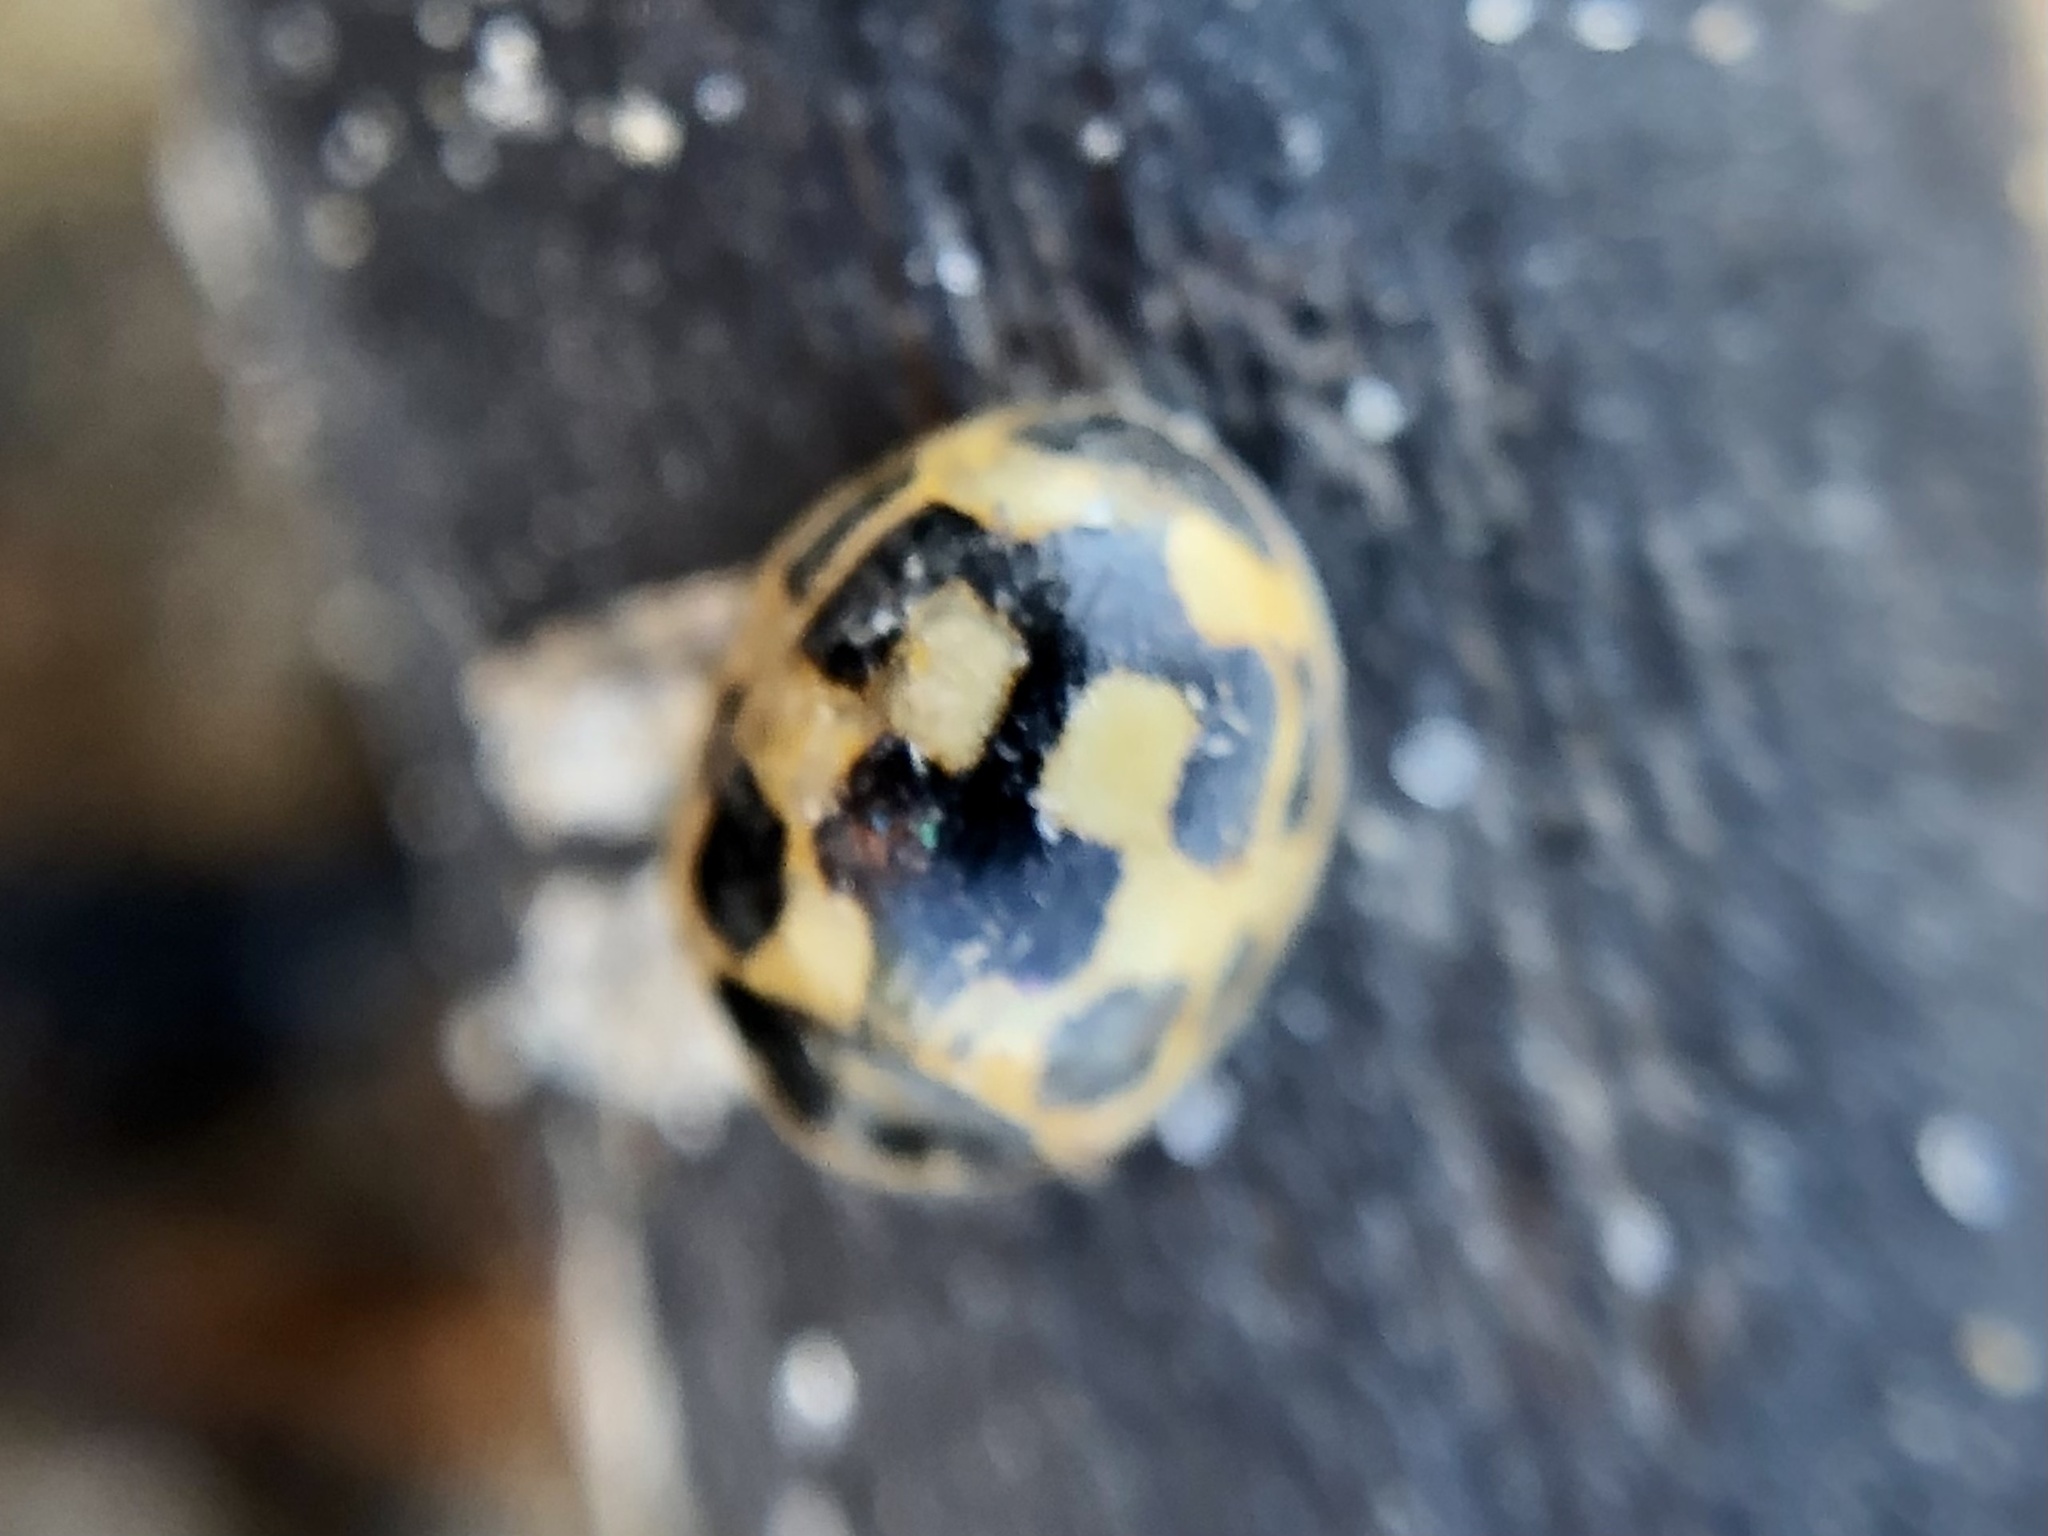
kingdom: Animalia
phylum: Arthropoda
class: Insecta
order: Coleoptera
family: Coccinellidae
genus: Propylaea
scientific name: Propylaea quatuordecimpunctata
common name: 14-spotted ladybird beetle
